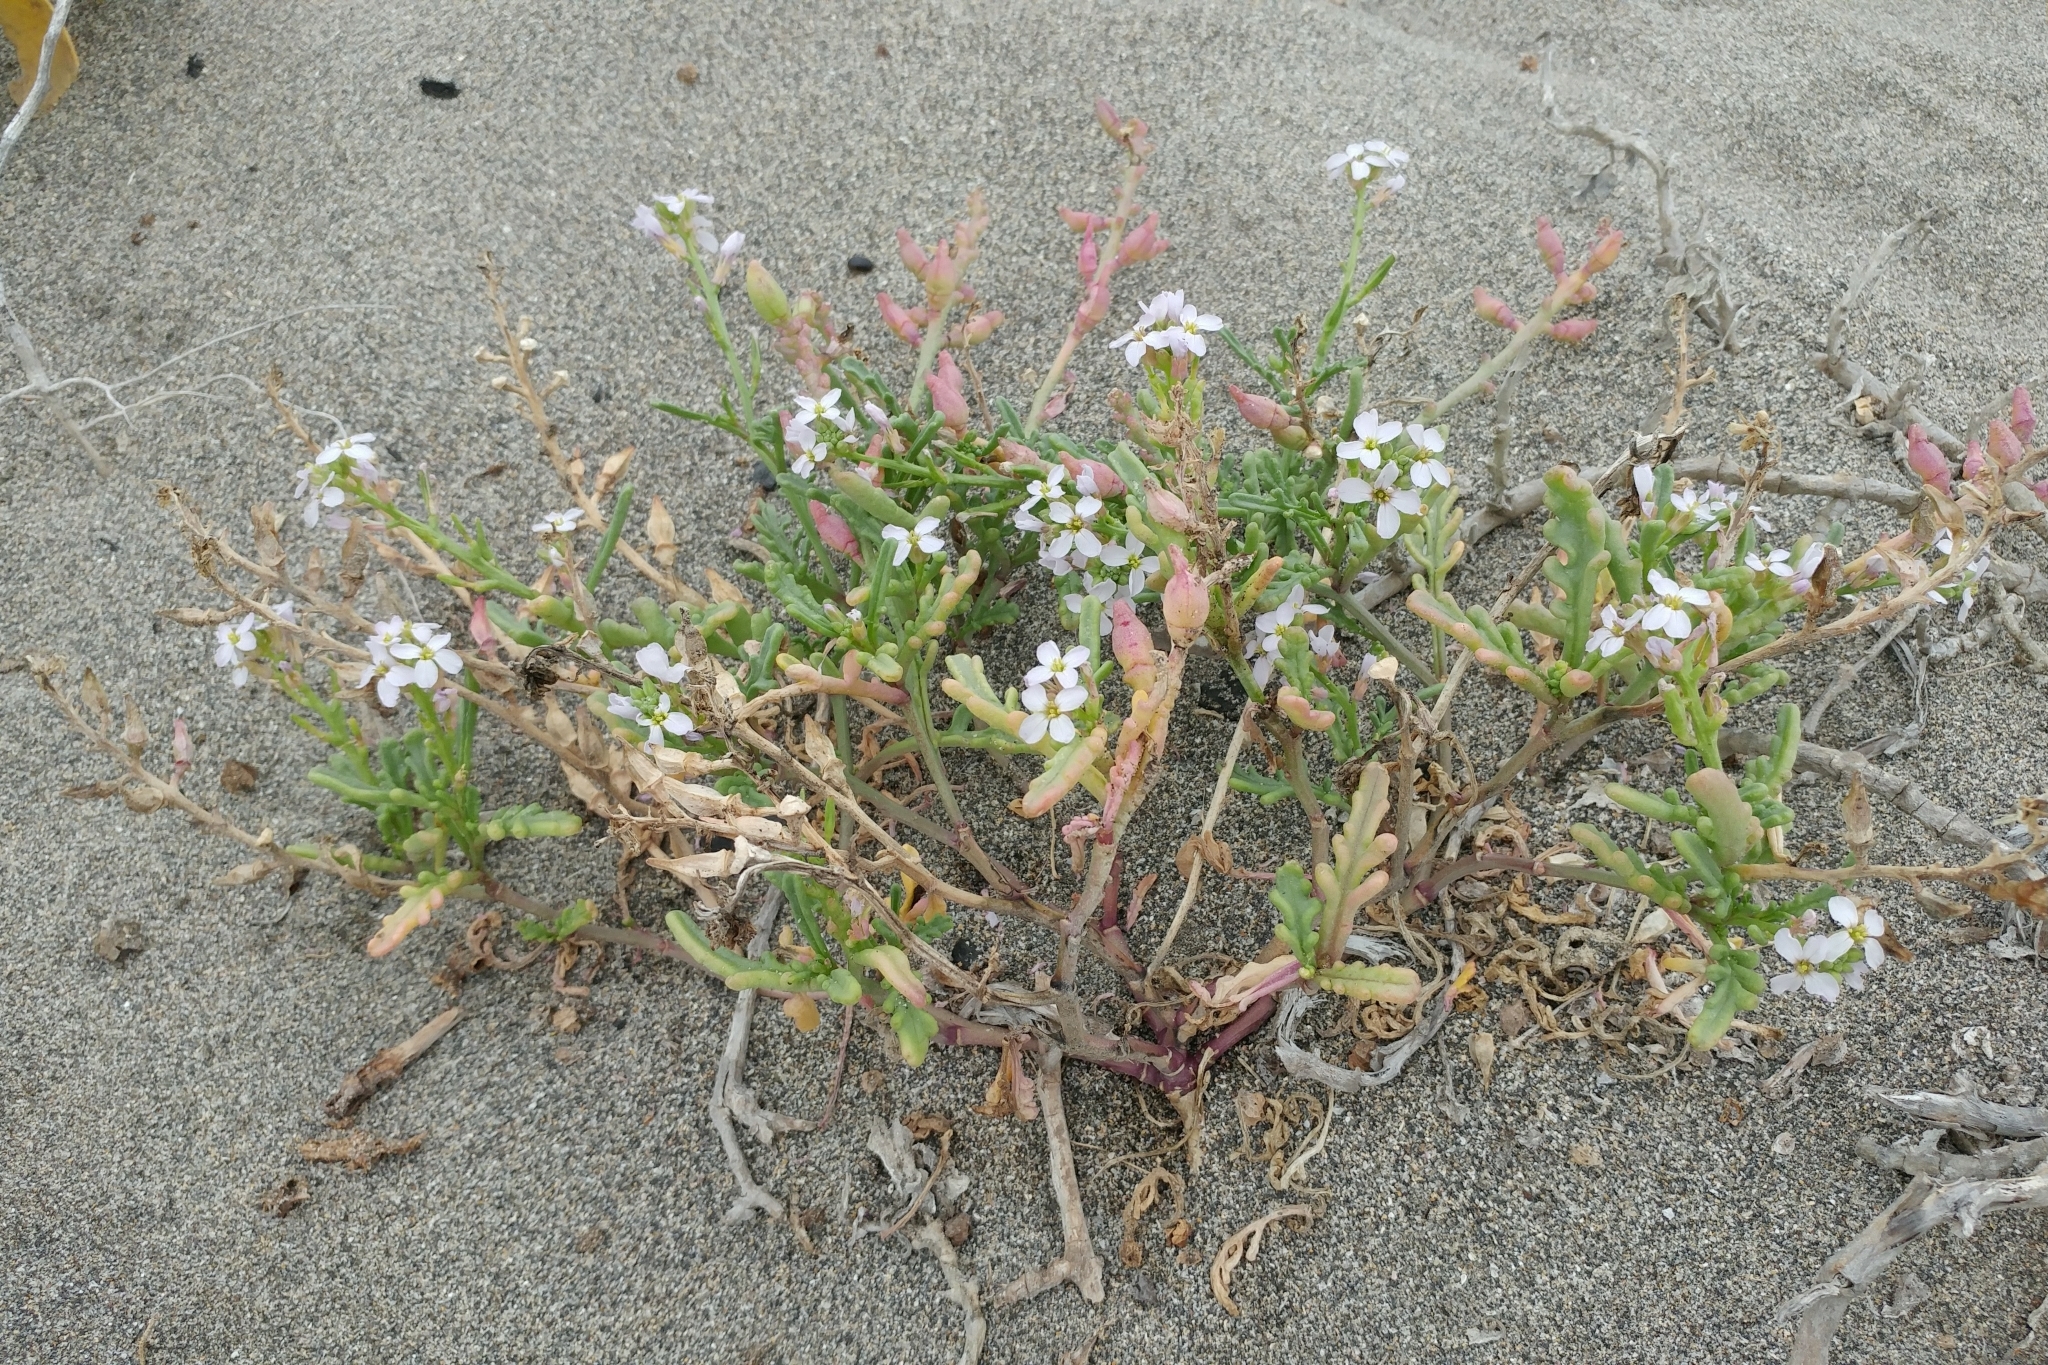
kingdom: Plantae
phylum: Tracheophyta
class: Magnoliopsida
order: Brassicales
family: Brassicaceae
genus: Cakile
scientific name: Cakile maritima
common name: Sea rocket
